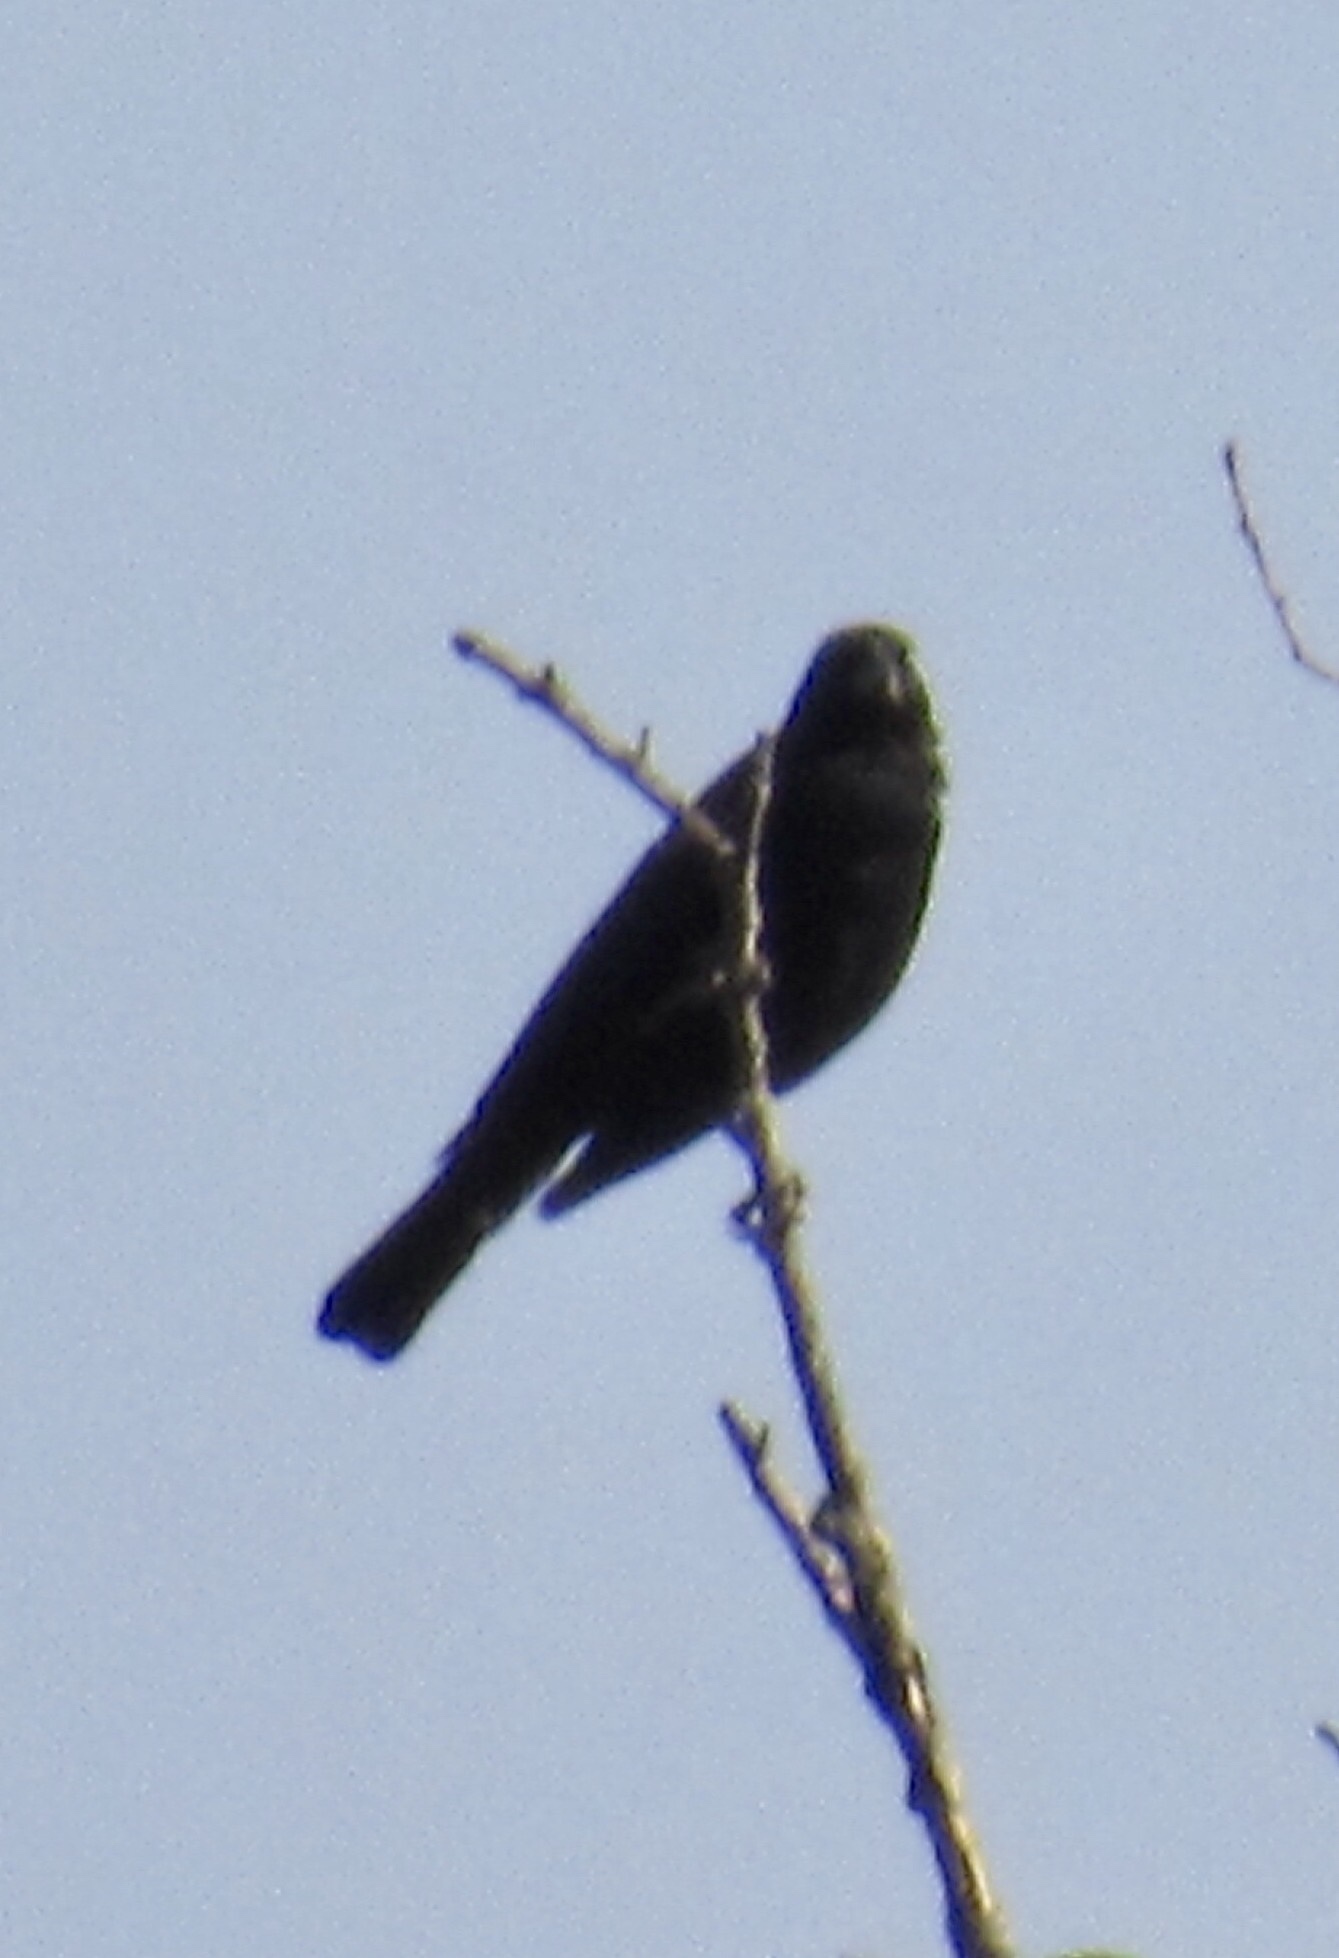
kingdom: Animalia
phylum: Chordata
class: Aves
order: Passeriformes
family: Icteridae
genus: Agelaius
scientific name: Agelaius phoeniceus
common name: Red-winged blackbird
